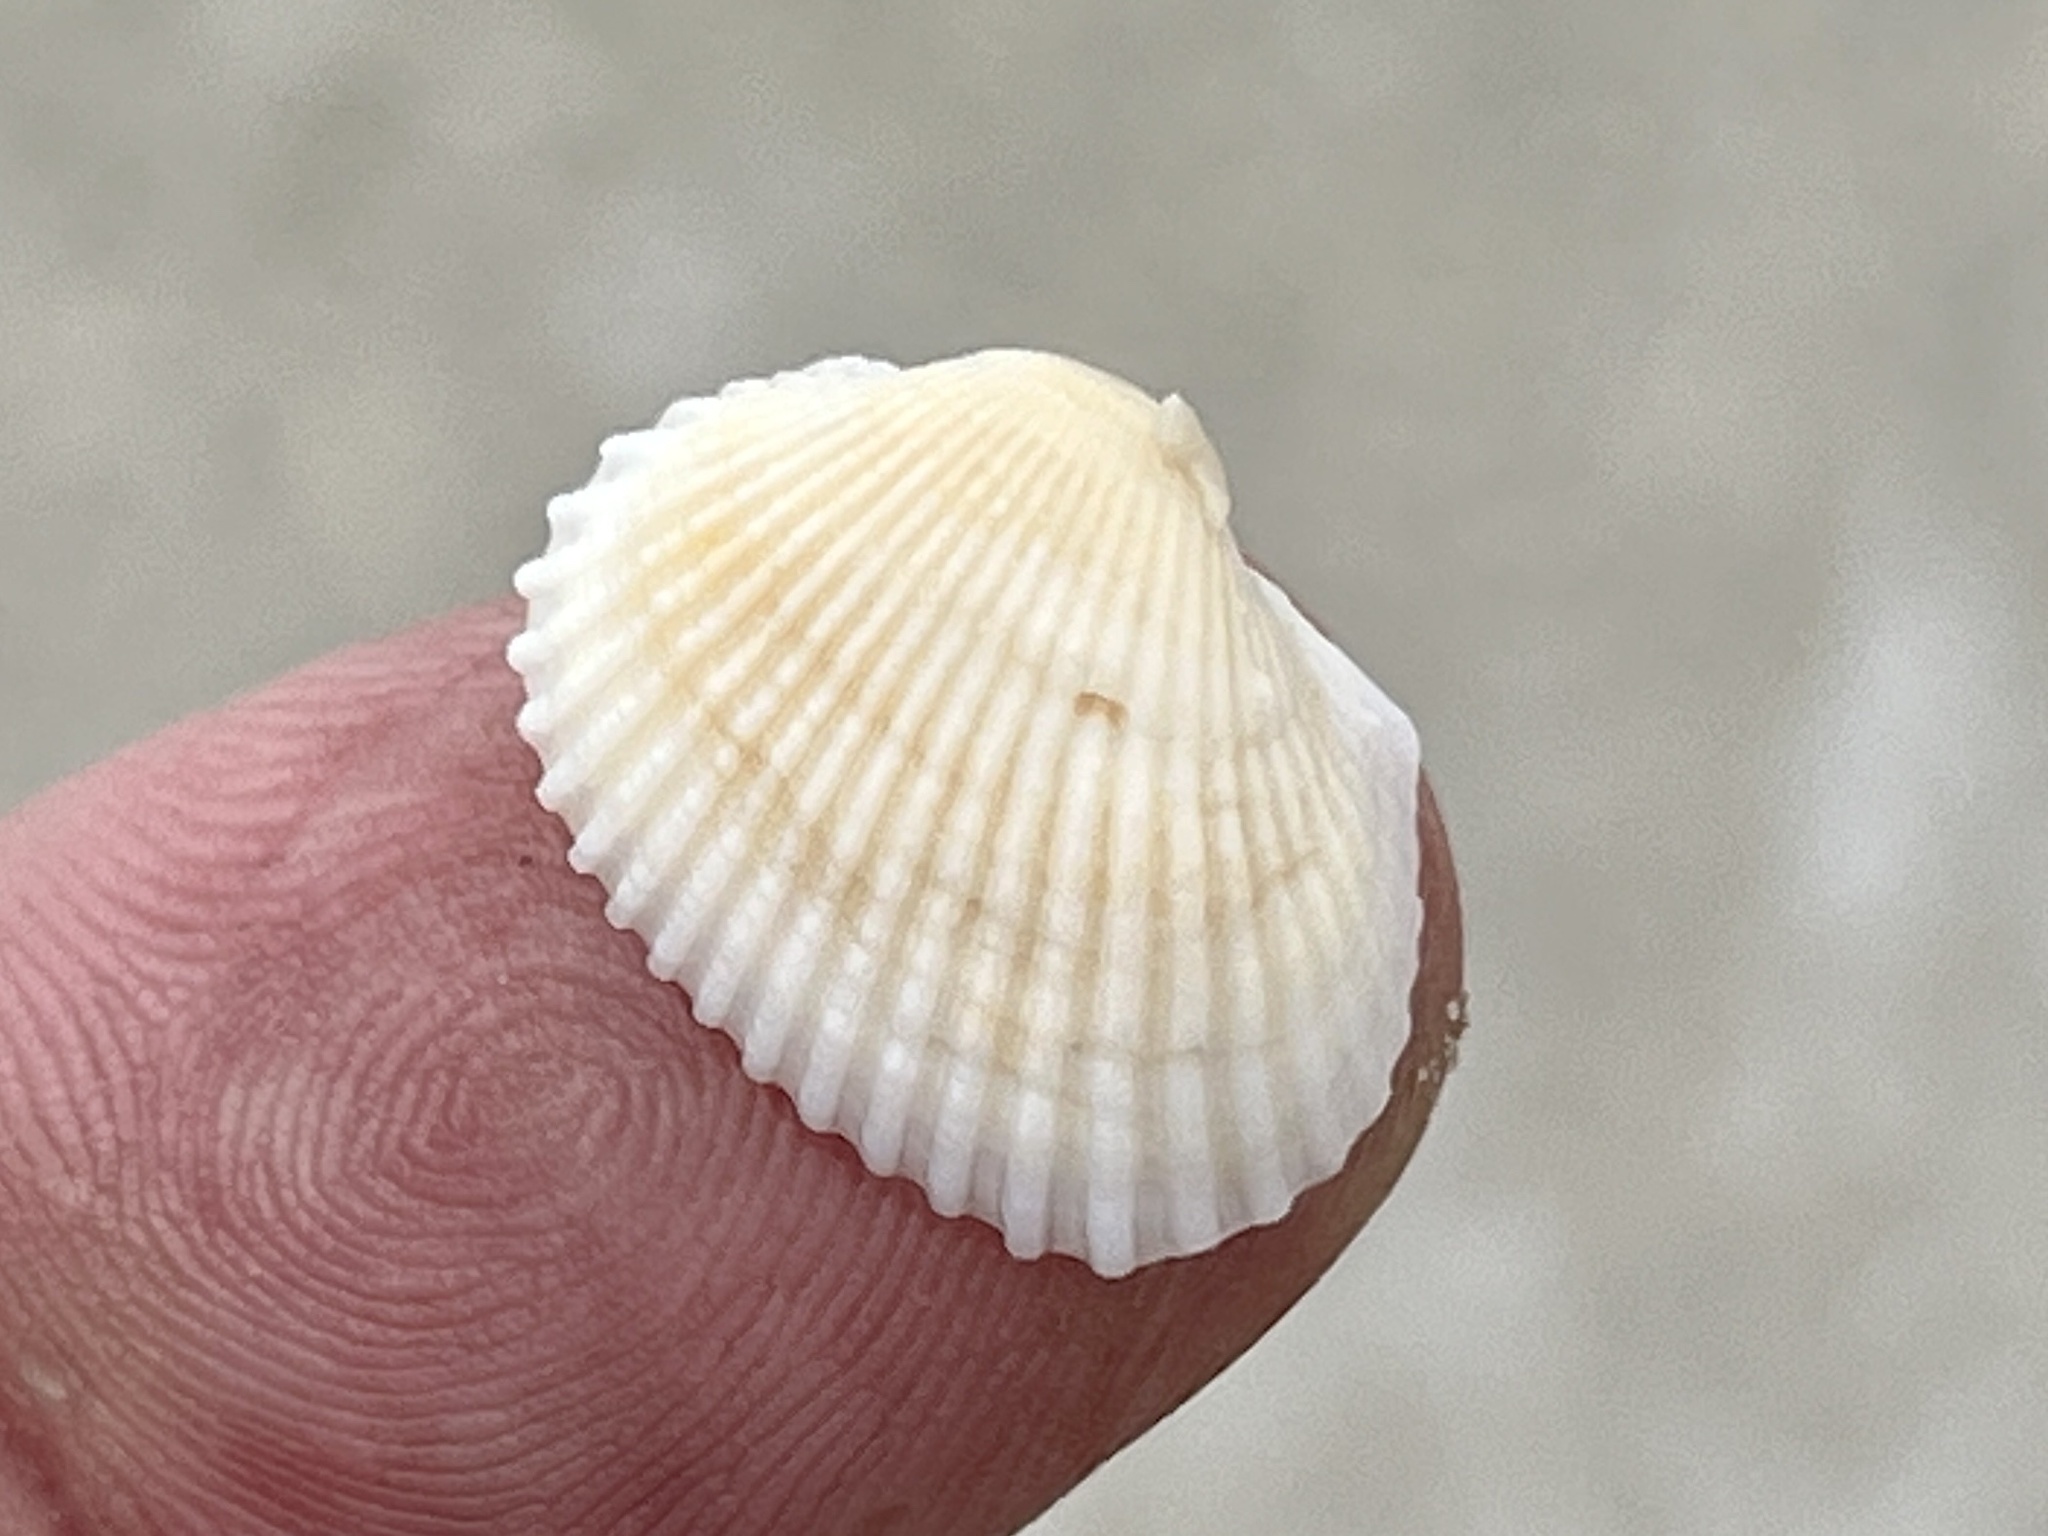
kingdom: Animalia
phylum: Mollusca
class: Bivalvia
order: Arcida
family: Arcidae
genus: Anadara
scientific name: Anadara transversa
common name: Transverse ark
